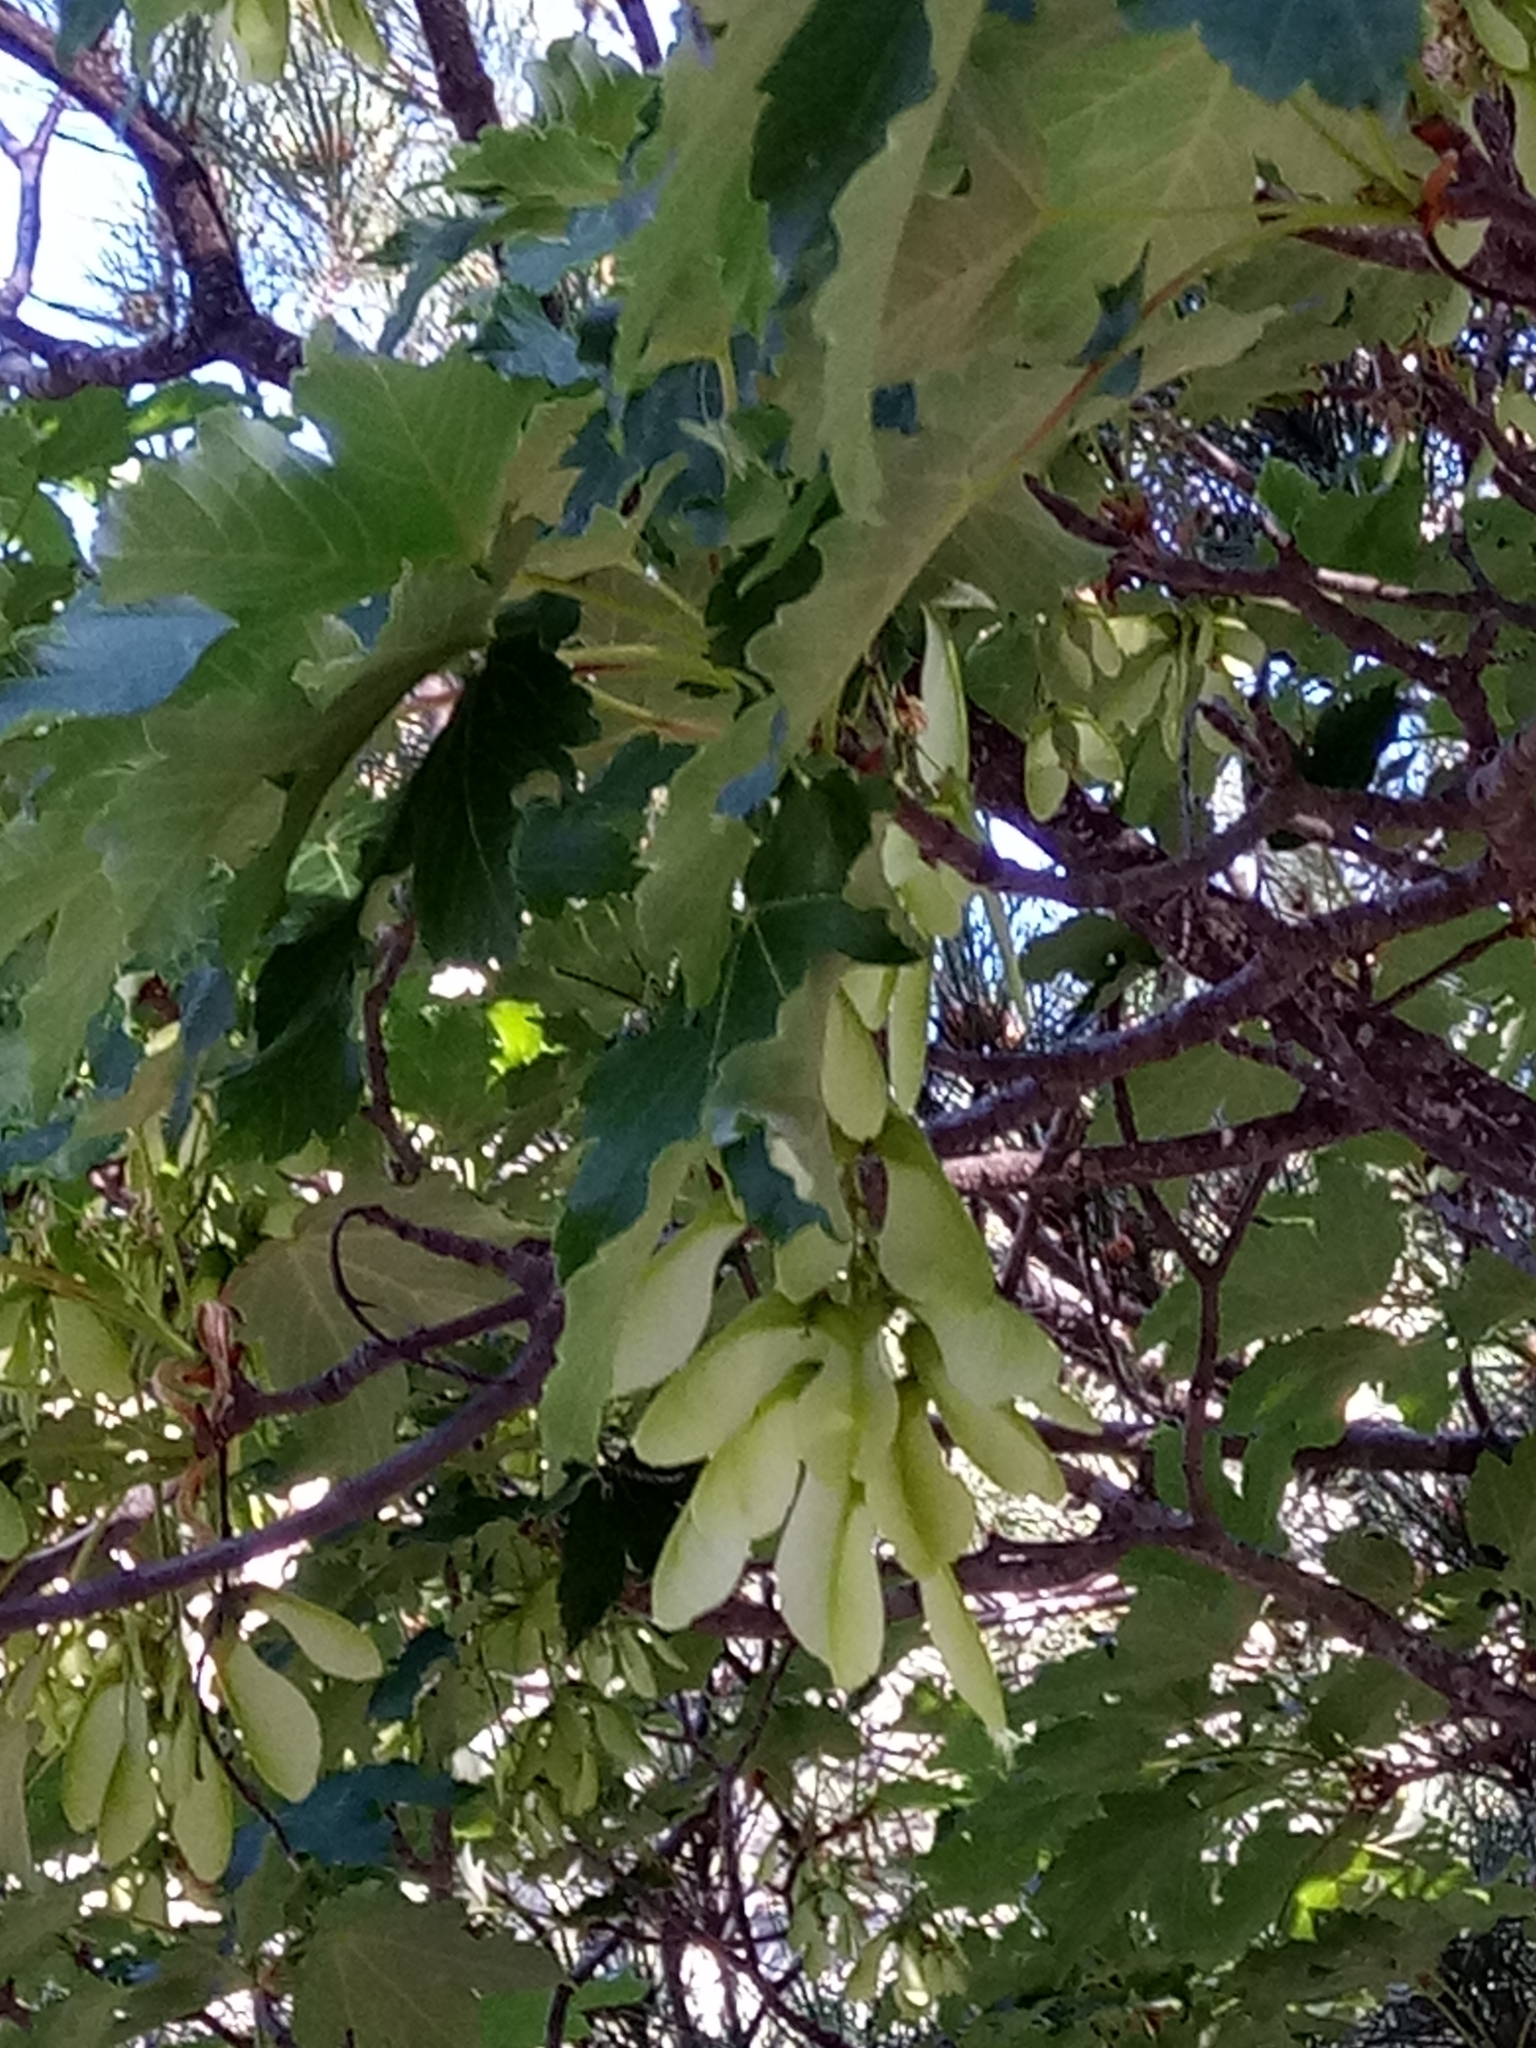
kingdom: Plantae
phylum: Tracheophyta
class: Magnoliopsida
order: Sapindales
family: Sapindaceae
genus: Acer
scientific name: Acer pseudoplatanus
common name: Sycamore
